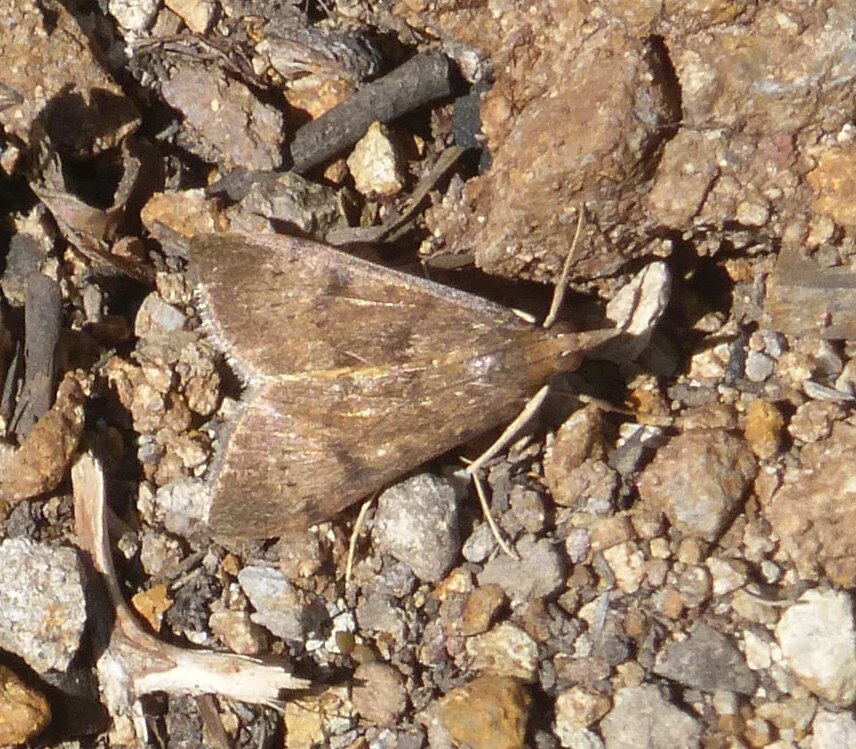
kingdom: Animalia
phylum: Arthropoda
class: Insecta
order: Lepidoptera
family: Crambidae
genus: Uresiphita
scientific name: Uresiphita gilvata
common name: Yellow-underwing pearl
